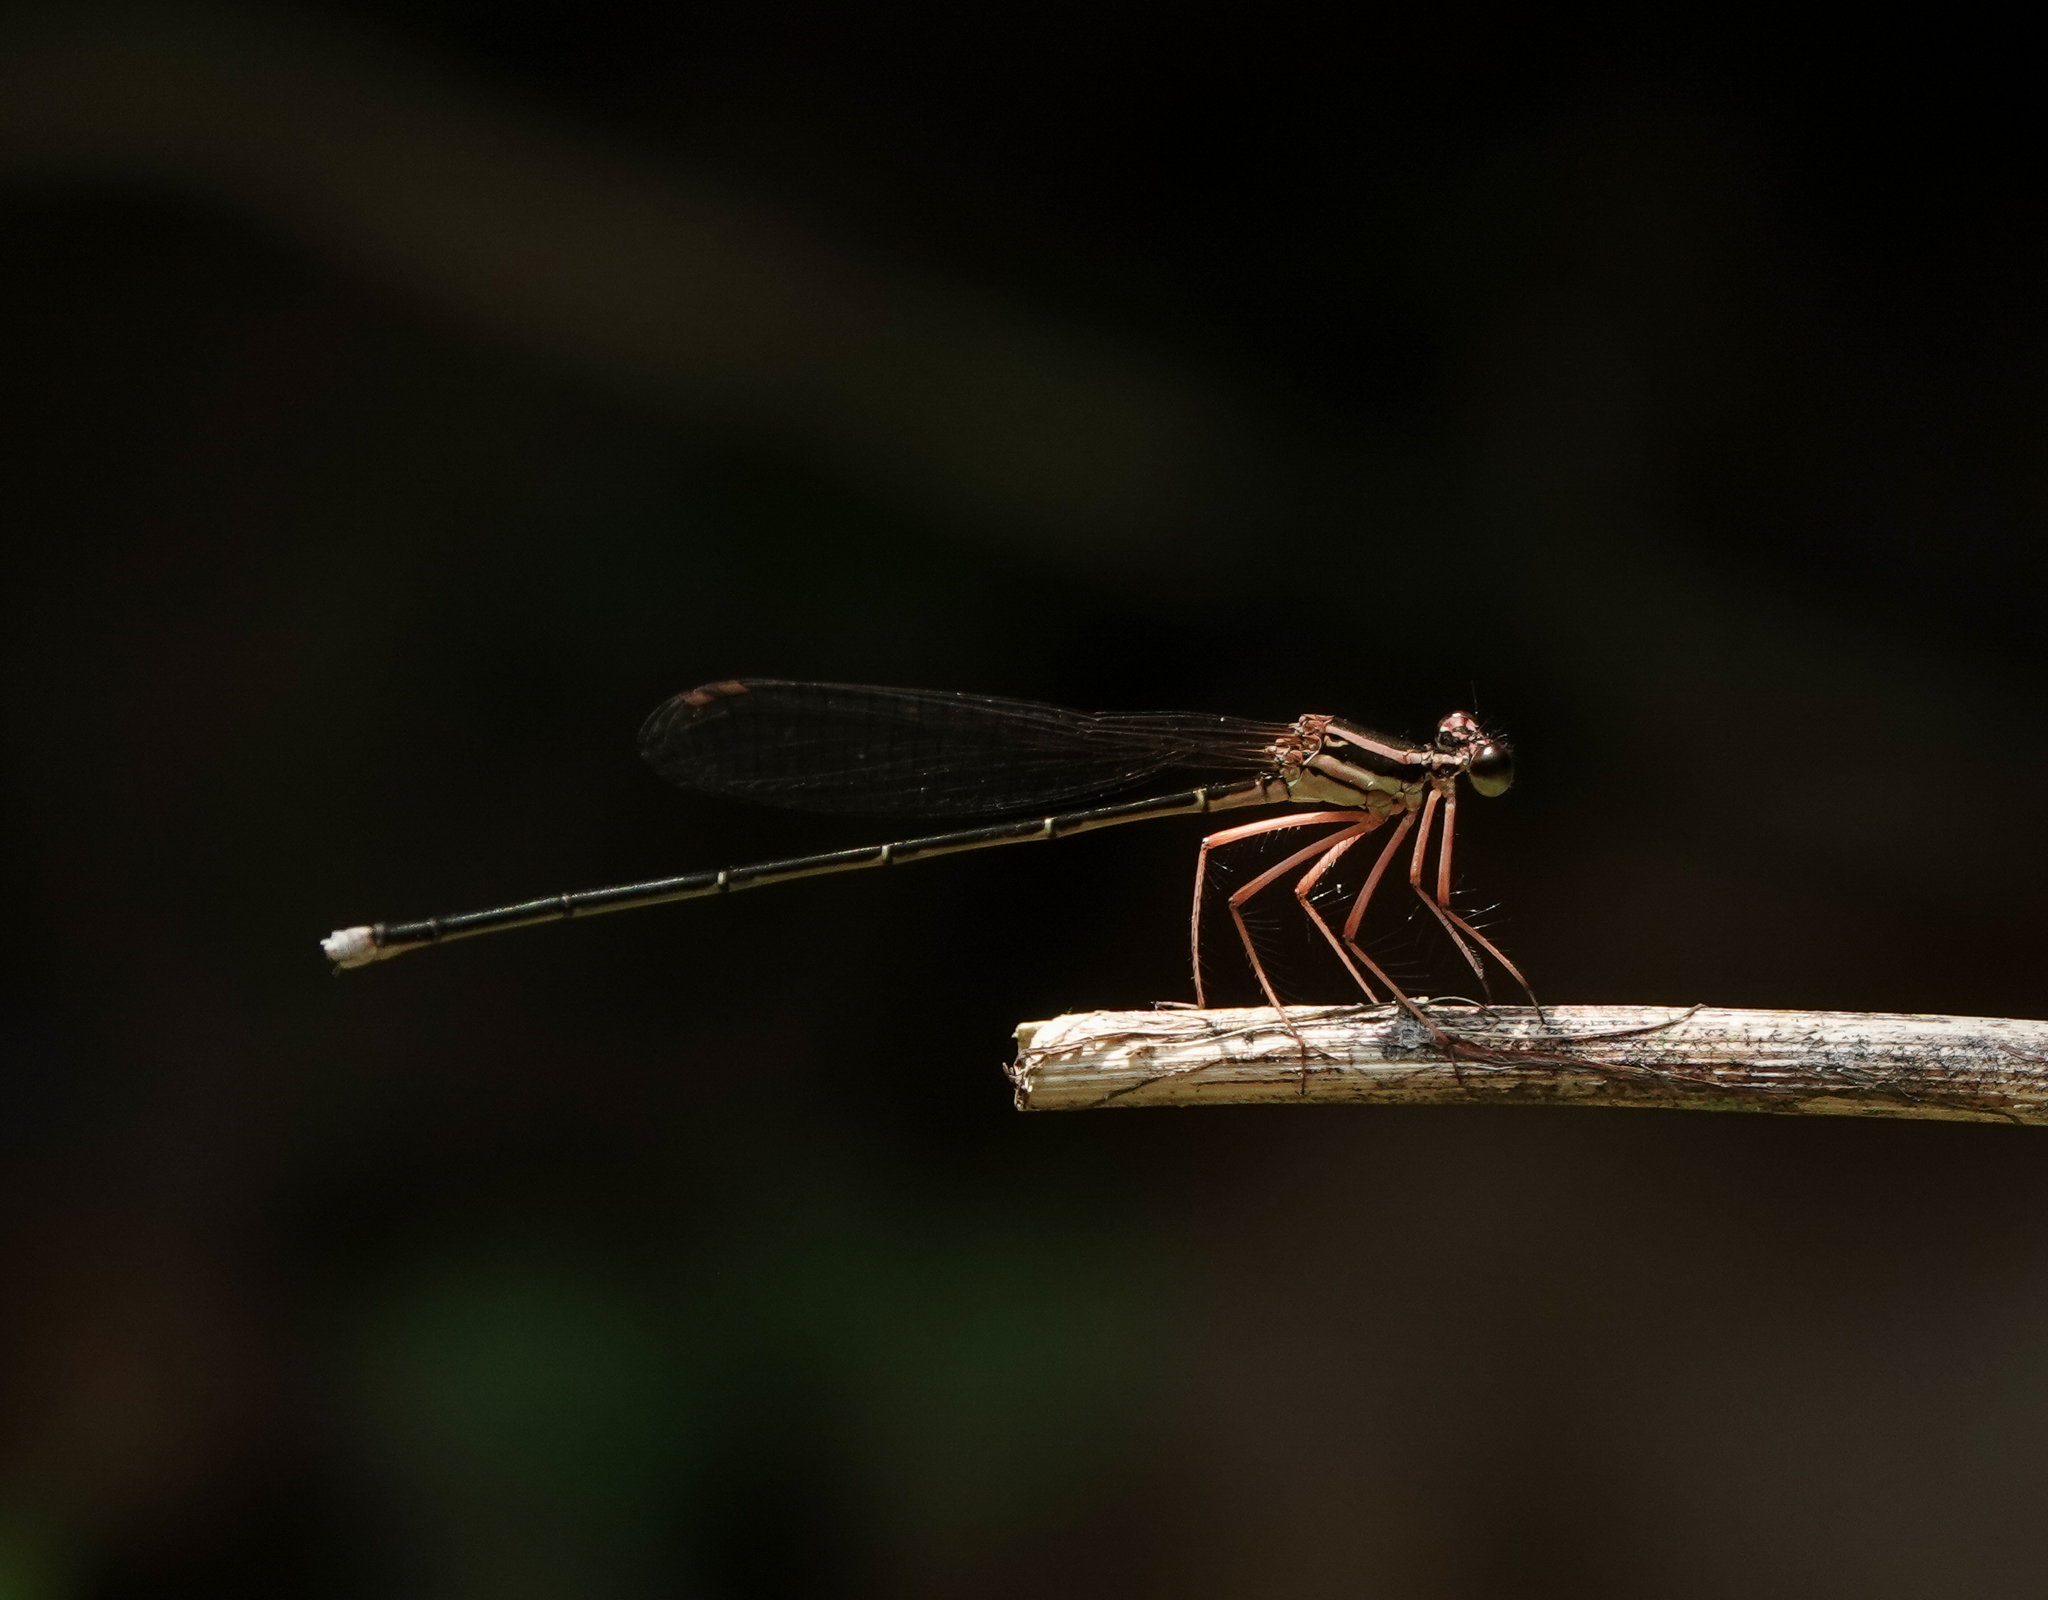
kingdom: Animalia
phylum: Arthropoda
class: Insecta
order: Odonata
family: Platycnemididae
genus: Pseudocopera
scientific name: Pseudocopera ciliata
